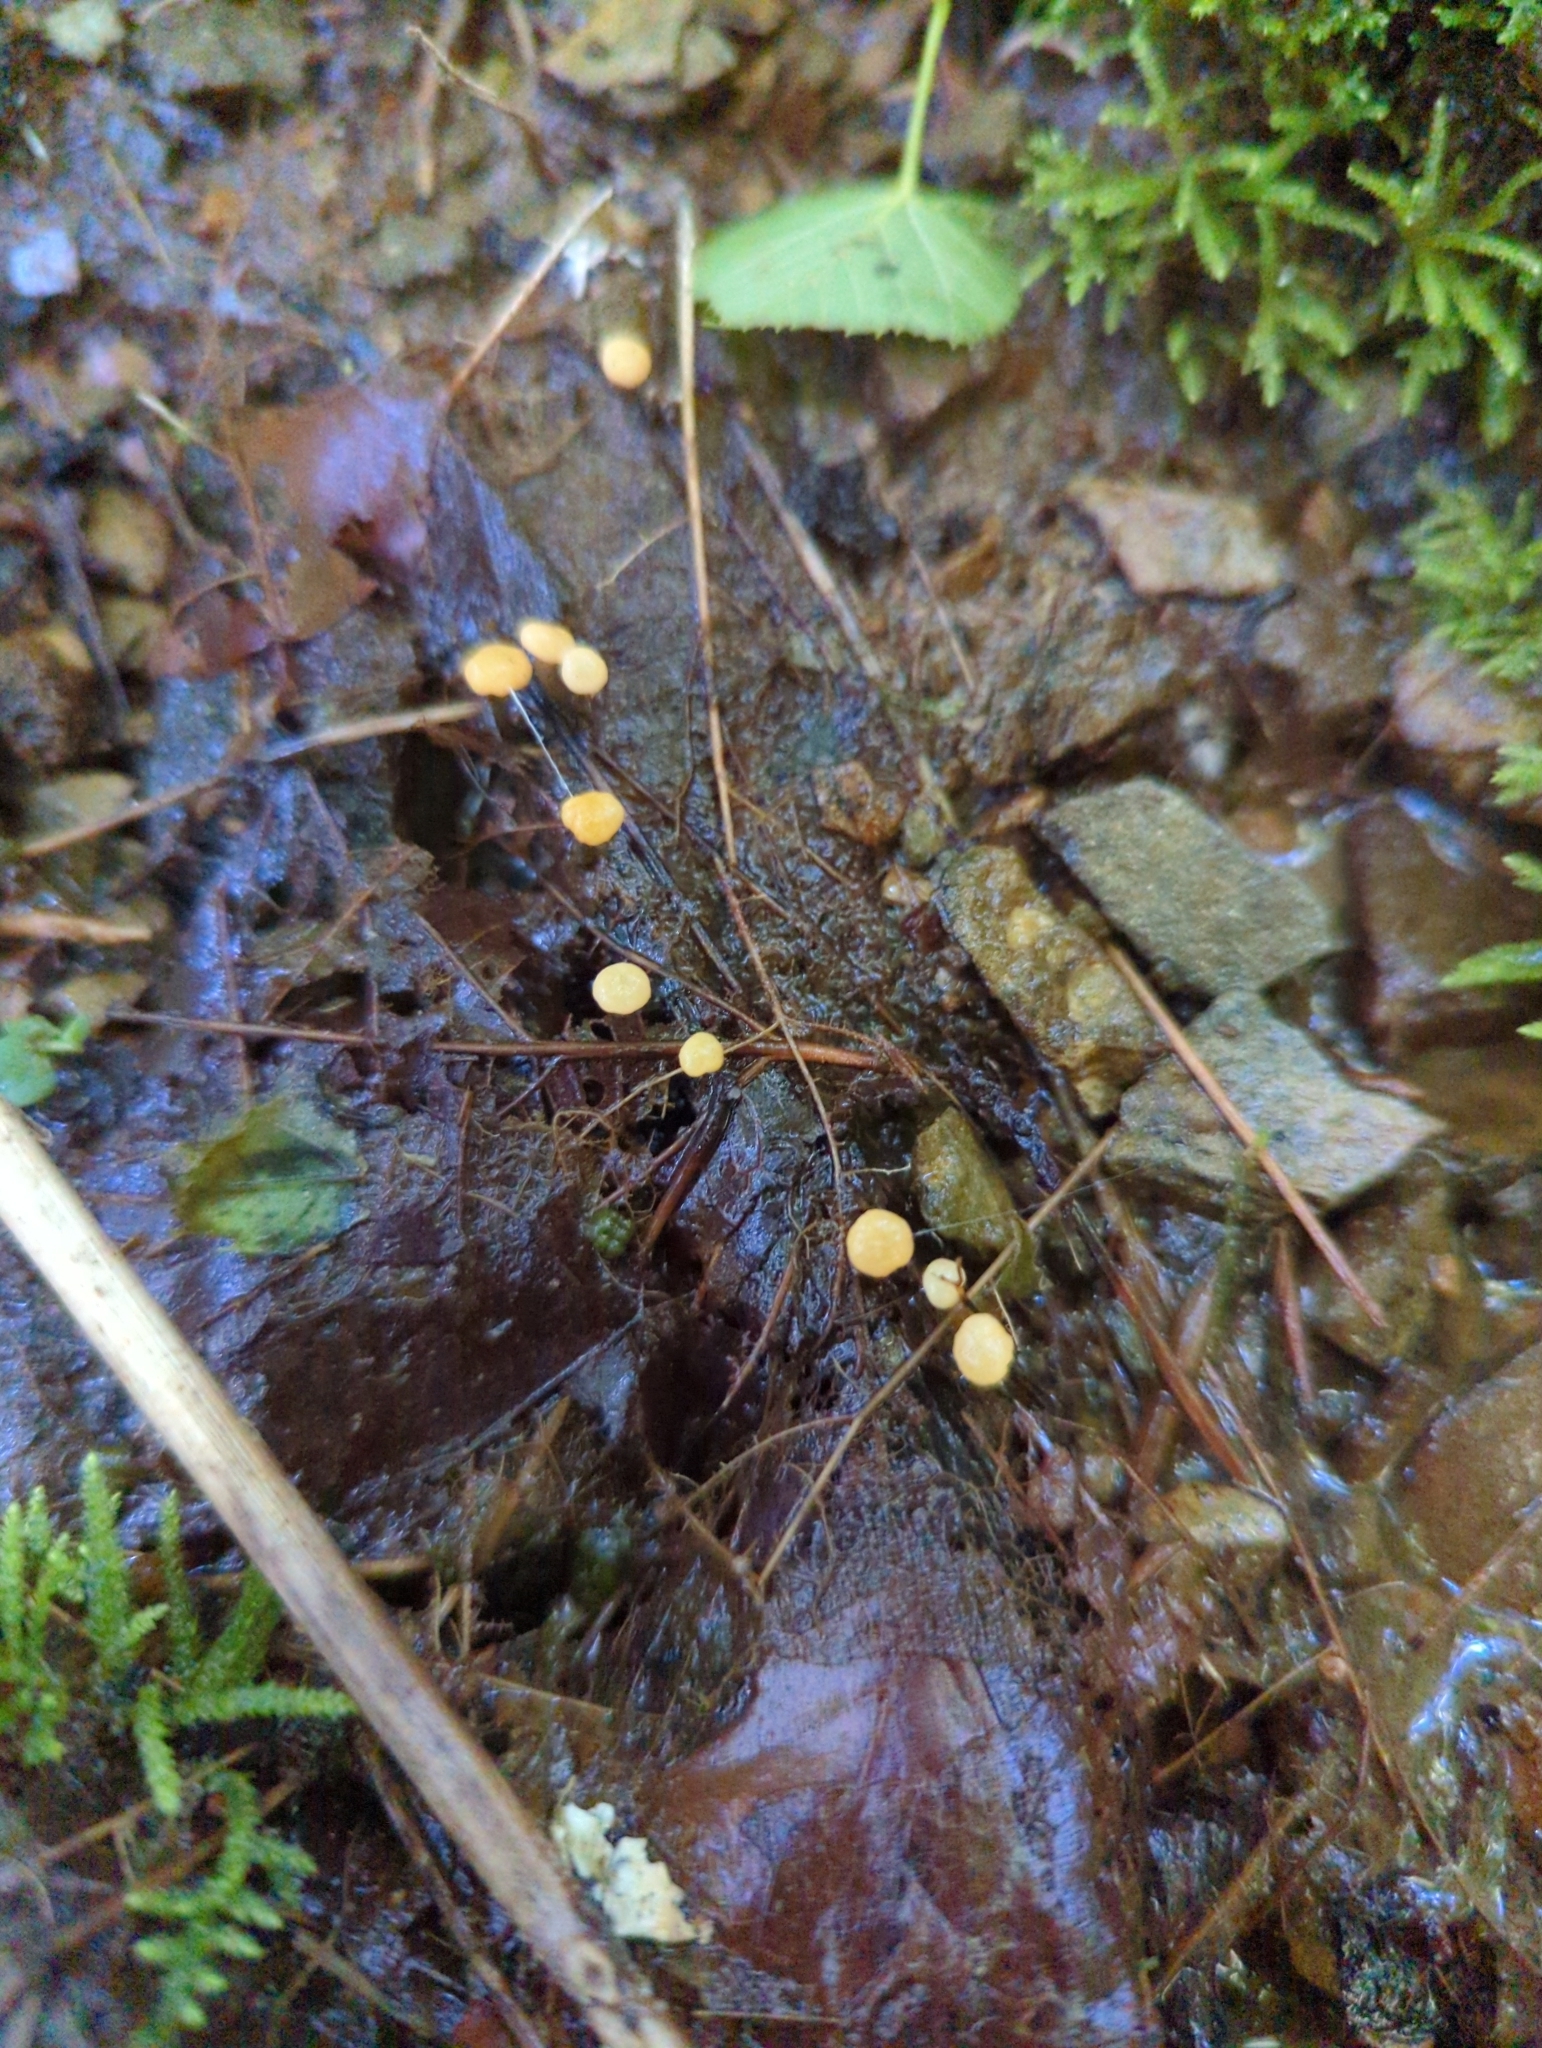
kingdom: Fungi
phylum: Ascomycota
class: Leotiomycetes
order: Helotiales
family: Vibrisseaceae
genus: Vibrissea
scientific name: Vibrissea truncorum
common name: Stream beacon
